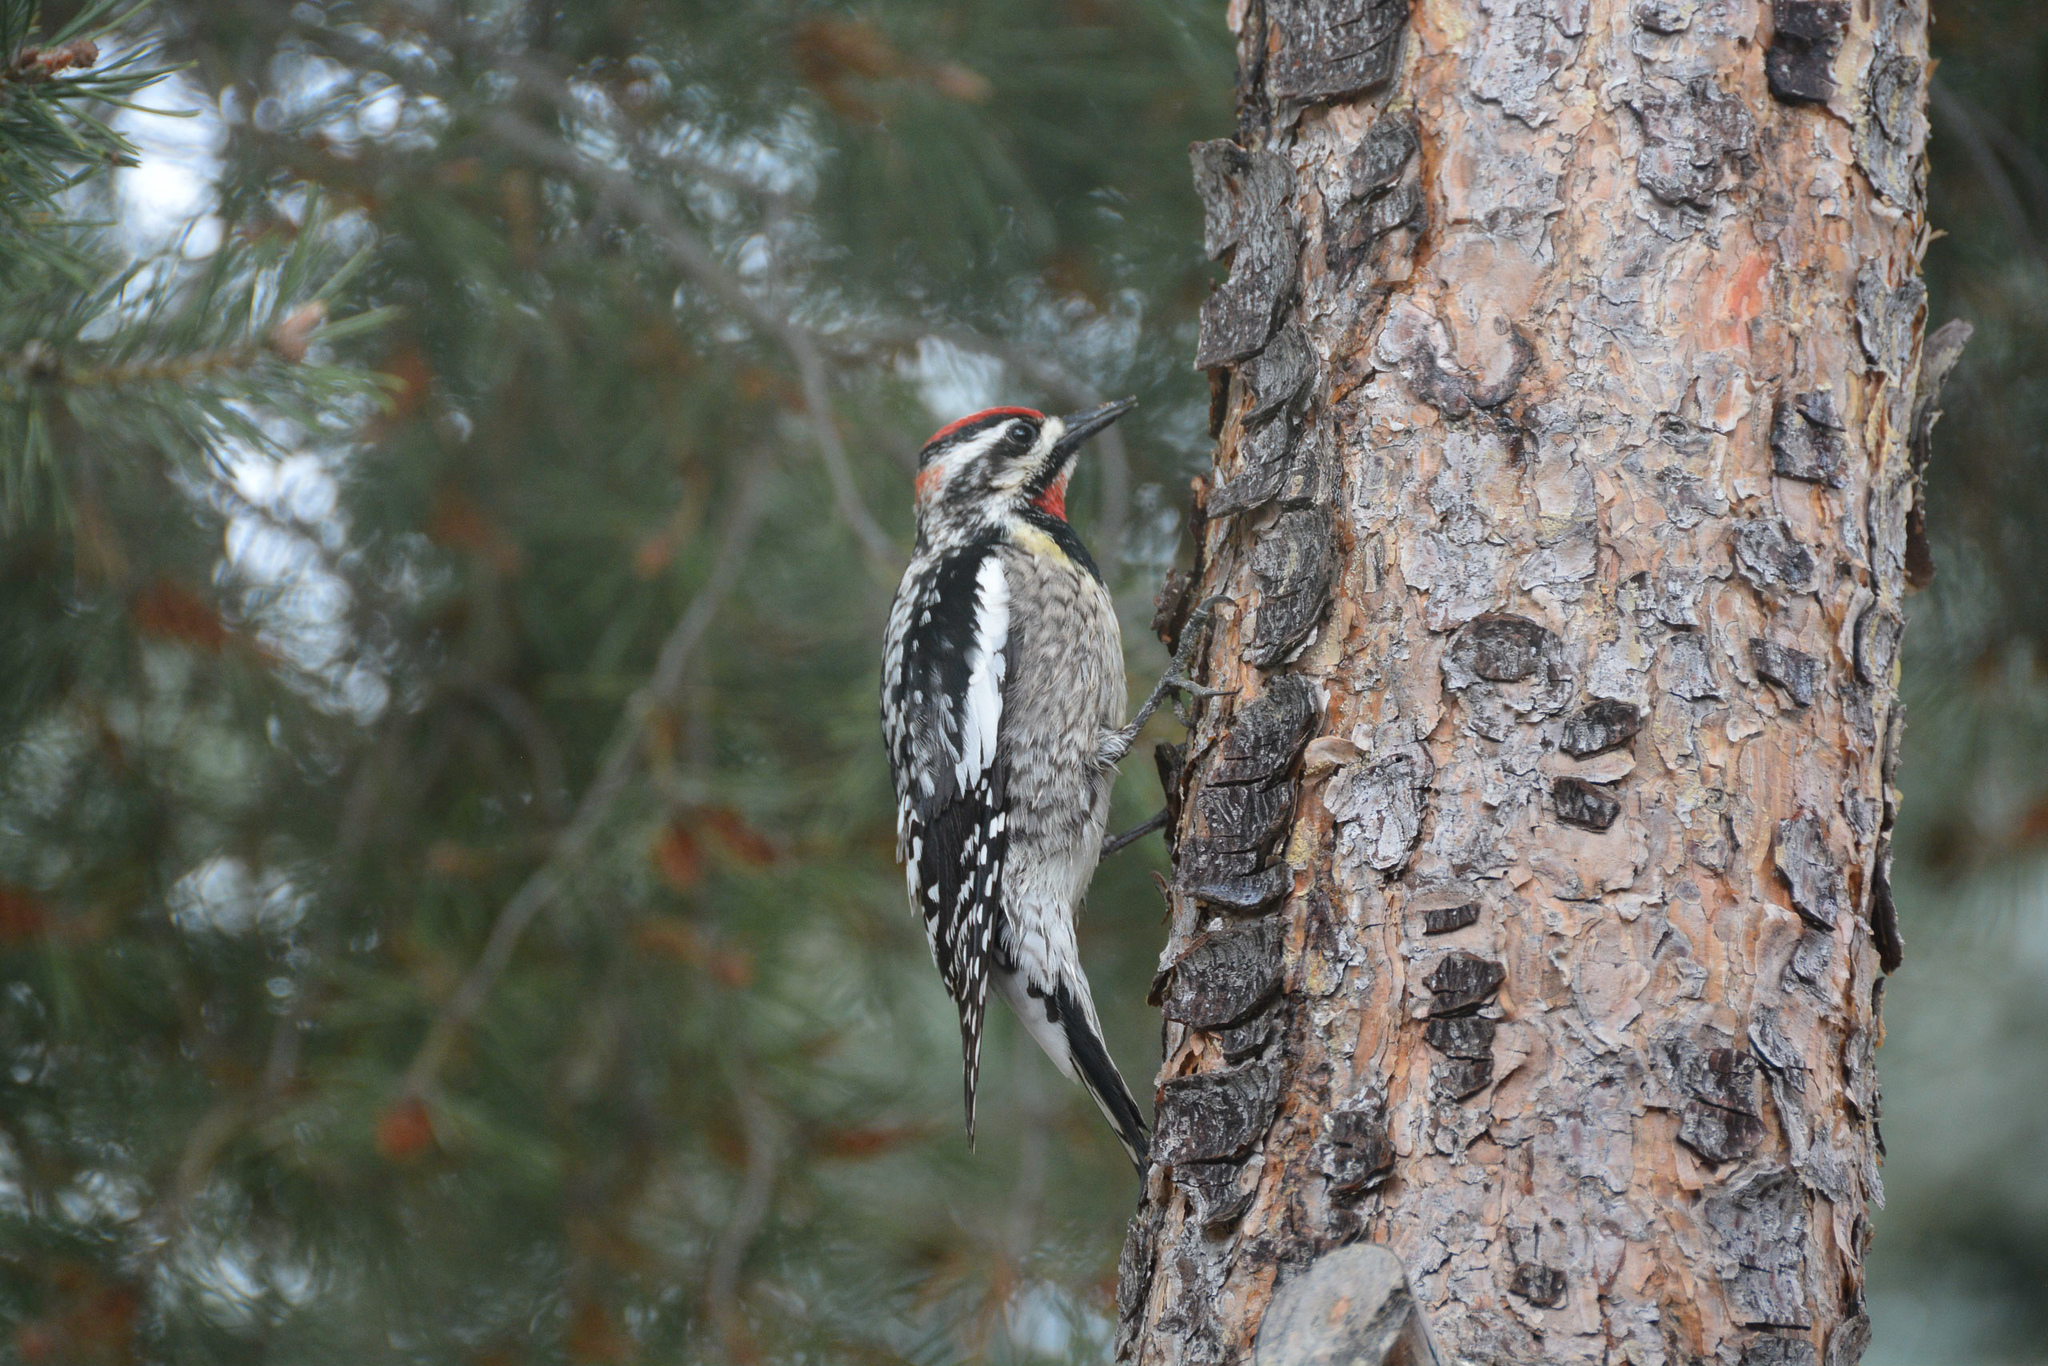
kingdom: Animalia
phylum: Chordata
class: Aves
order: Piciformes
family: Picidae
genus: Sphyrapicus
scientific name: Sphyrapicus nuchalis
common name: Red-naped sapsucker
